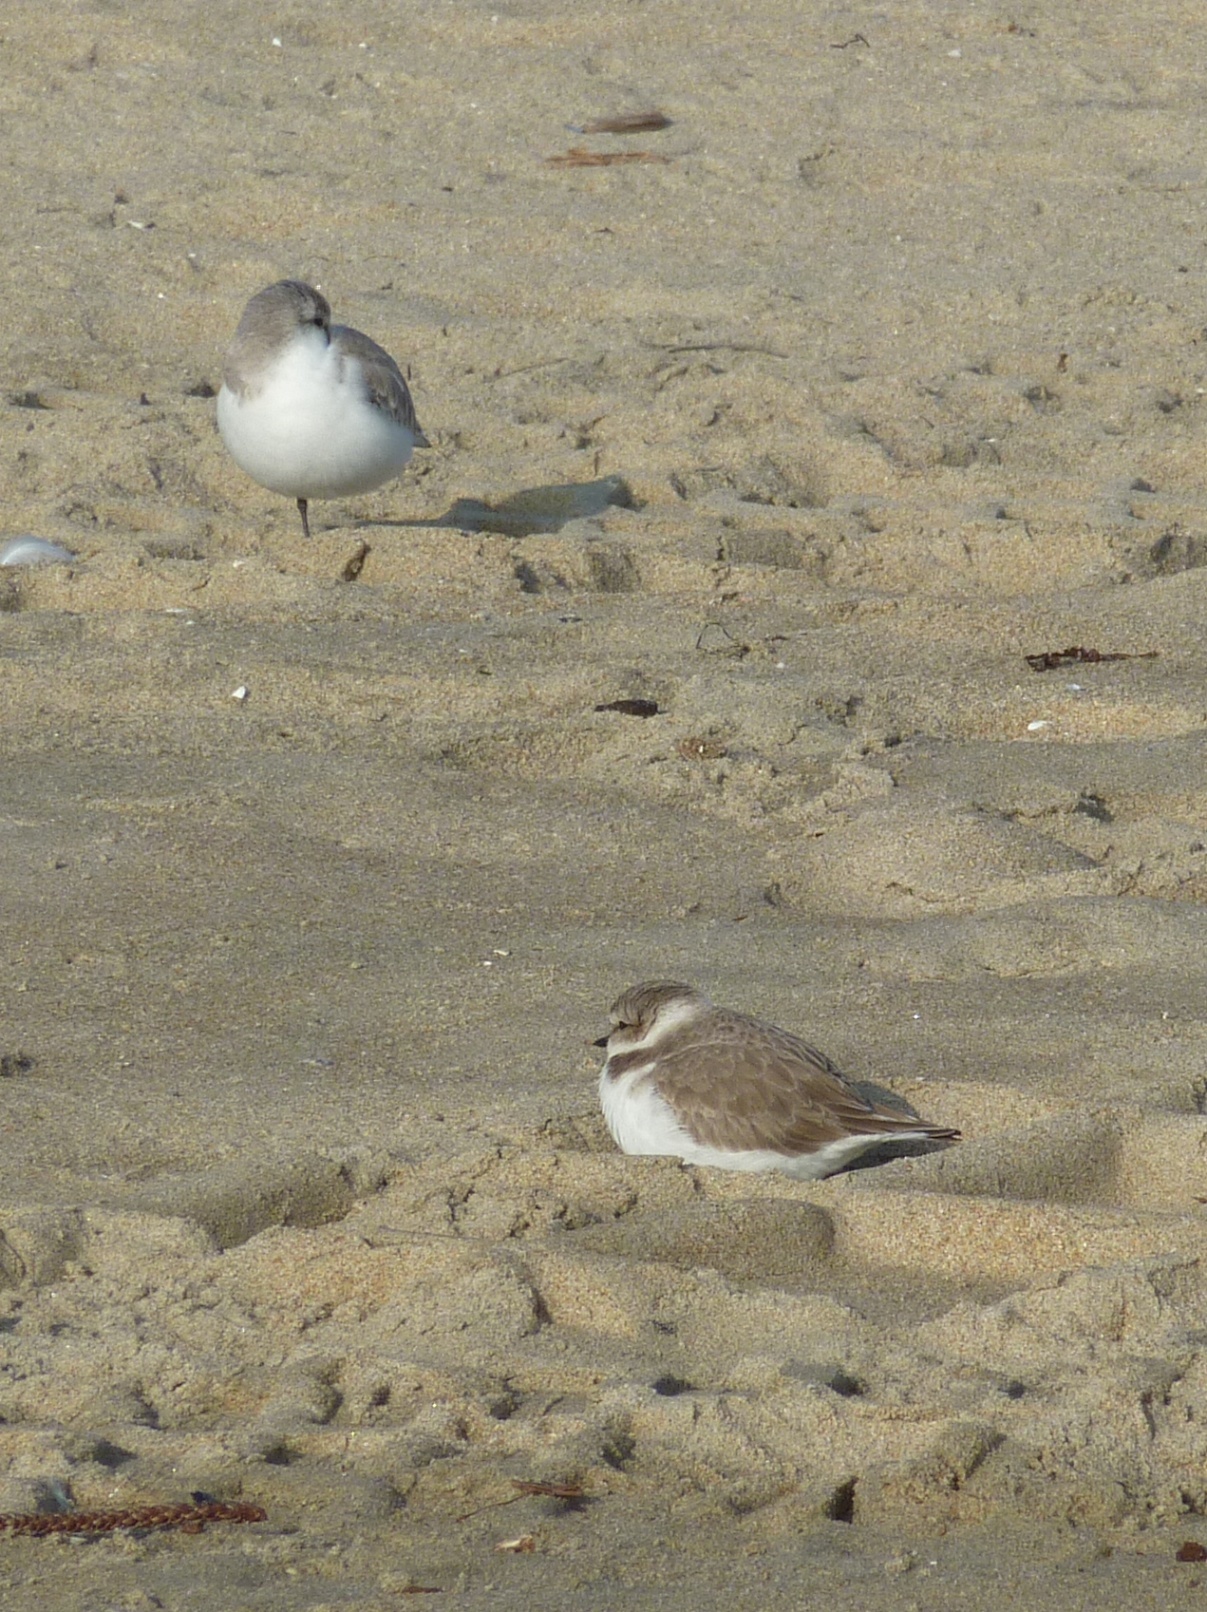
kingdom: Animalia
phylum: Chordata
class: Aves
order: Charadriiformes
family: Charadriidae
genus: Anarhynchus
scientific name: Anarhynchus
